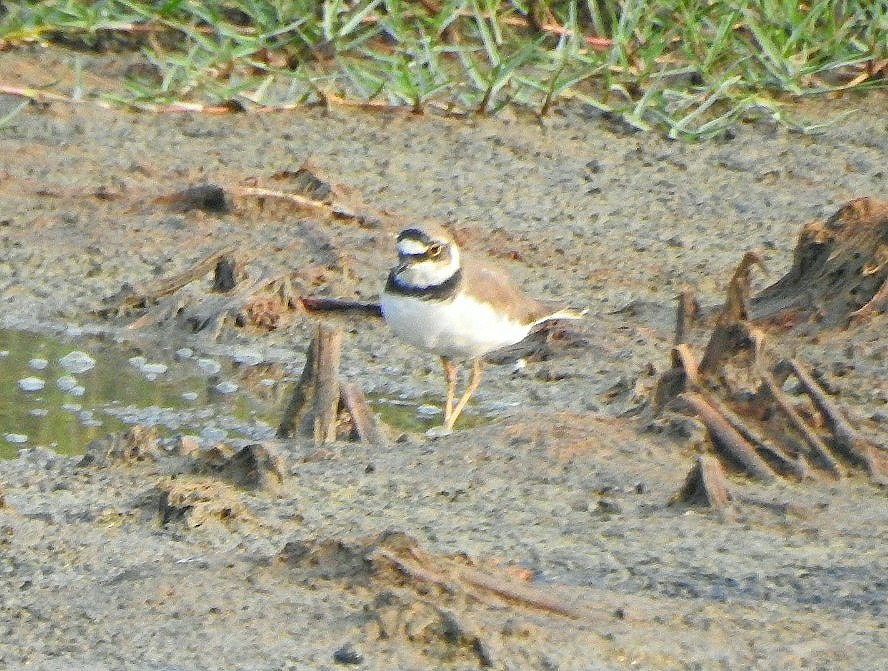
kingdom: Animalia
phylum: Chordata
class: Aves
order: Charadriiformes
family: Charadriidae
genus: Charadrius
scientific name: Charadrius dubius
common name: Little ringed plover
